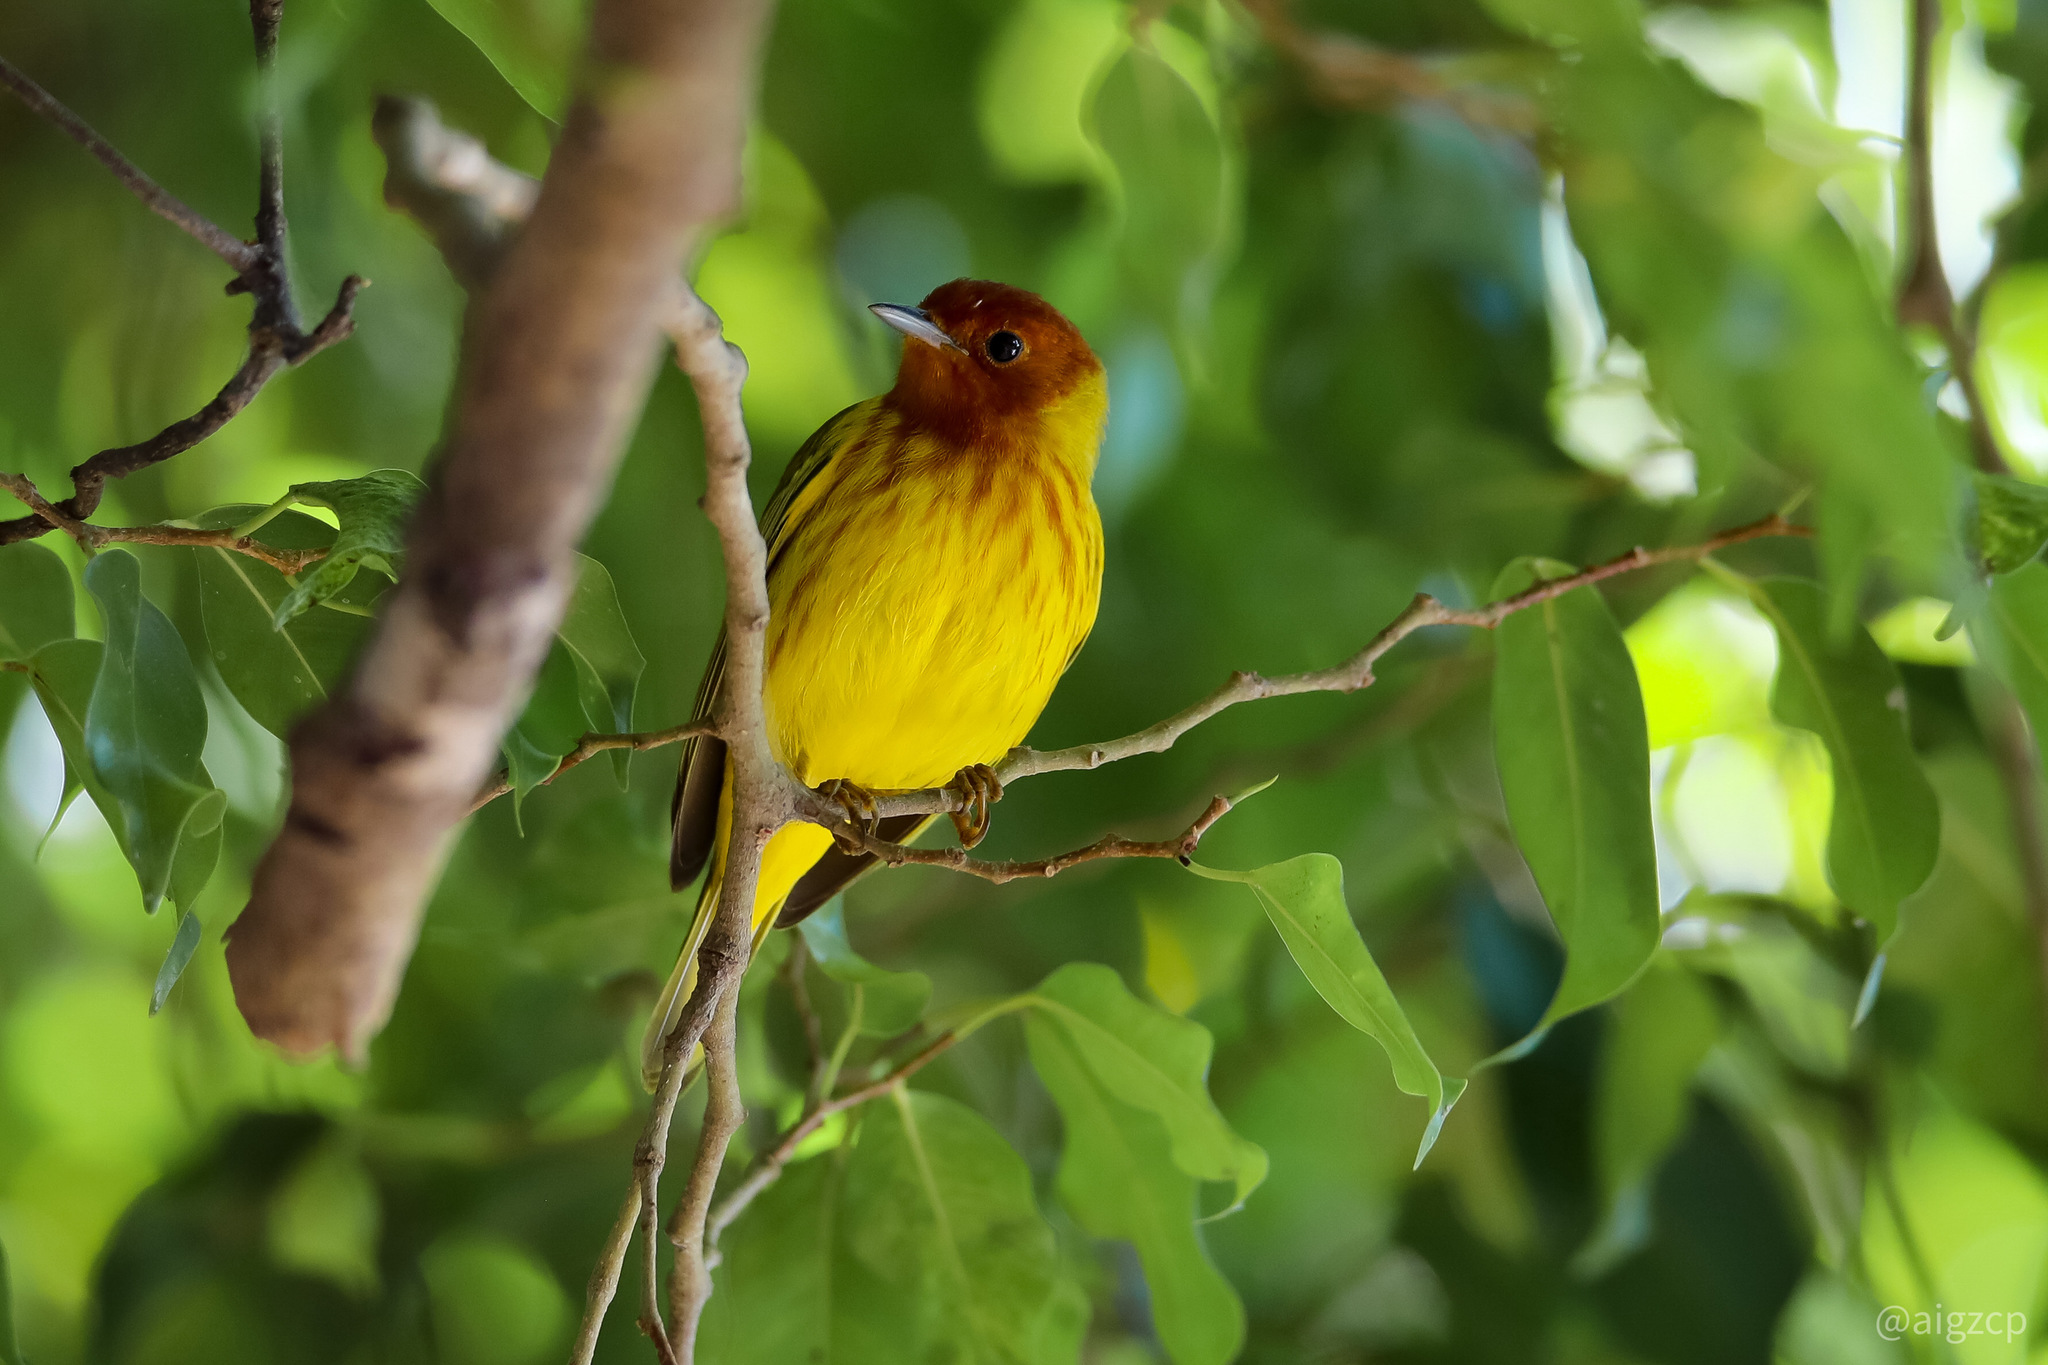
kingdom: Animalia
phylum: Chordata
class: Aves
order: Passeriformes
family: Parulidae
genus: Setophaga
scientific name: Setophaga petechia
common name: Yellow warbler
